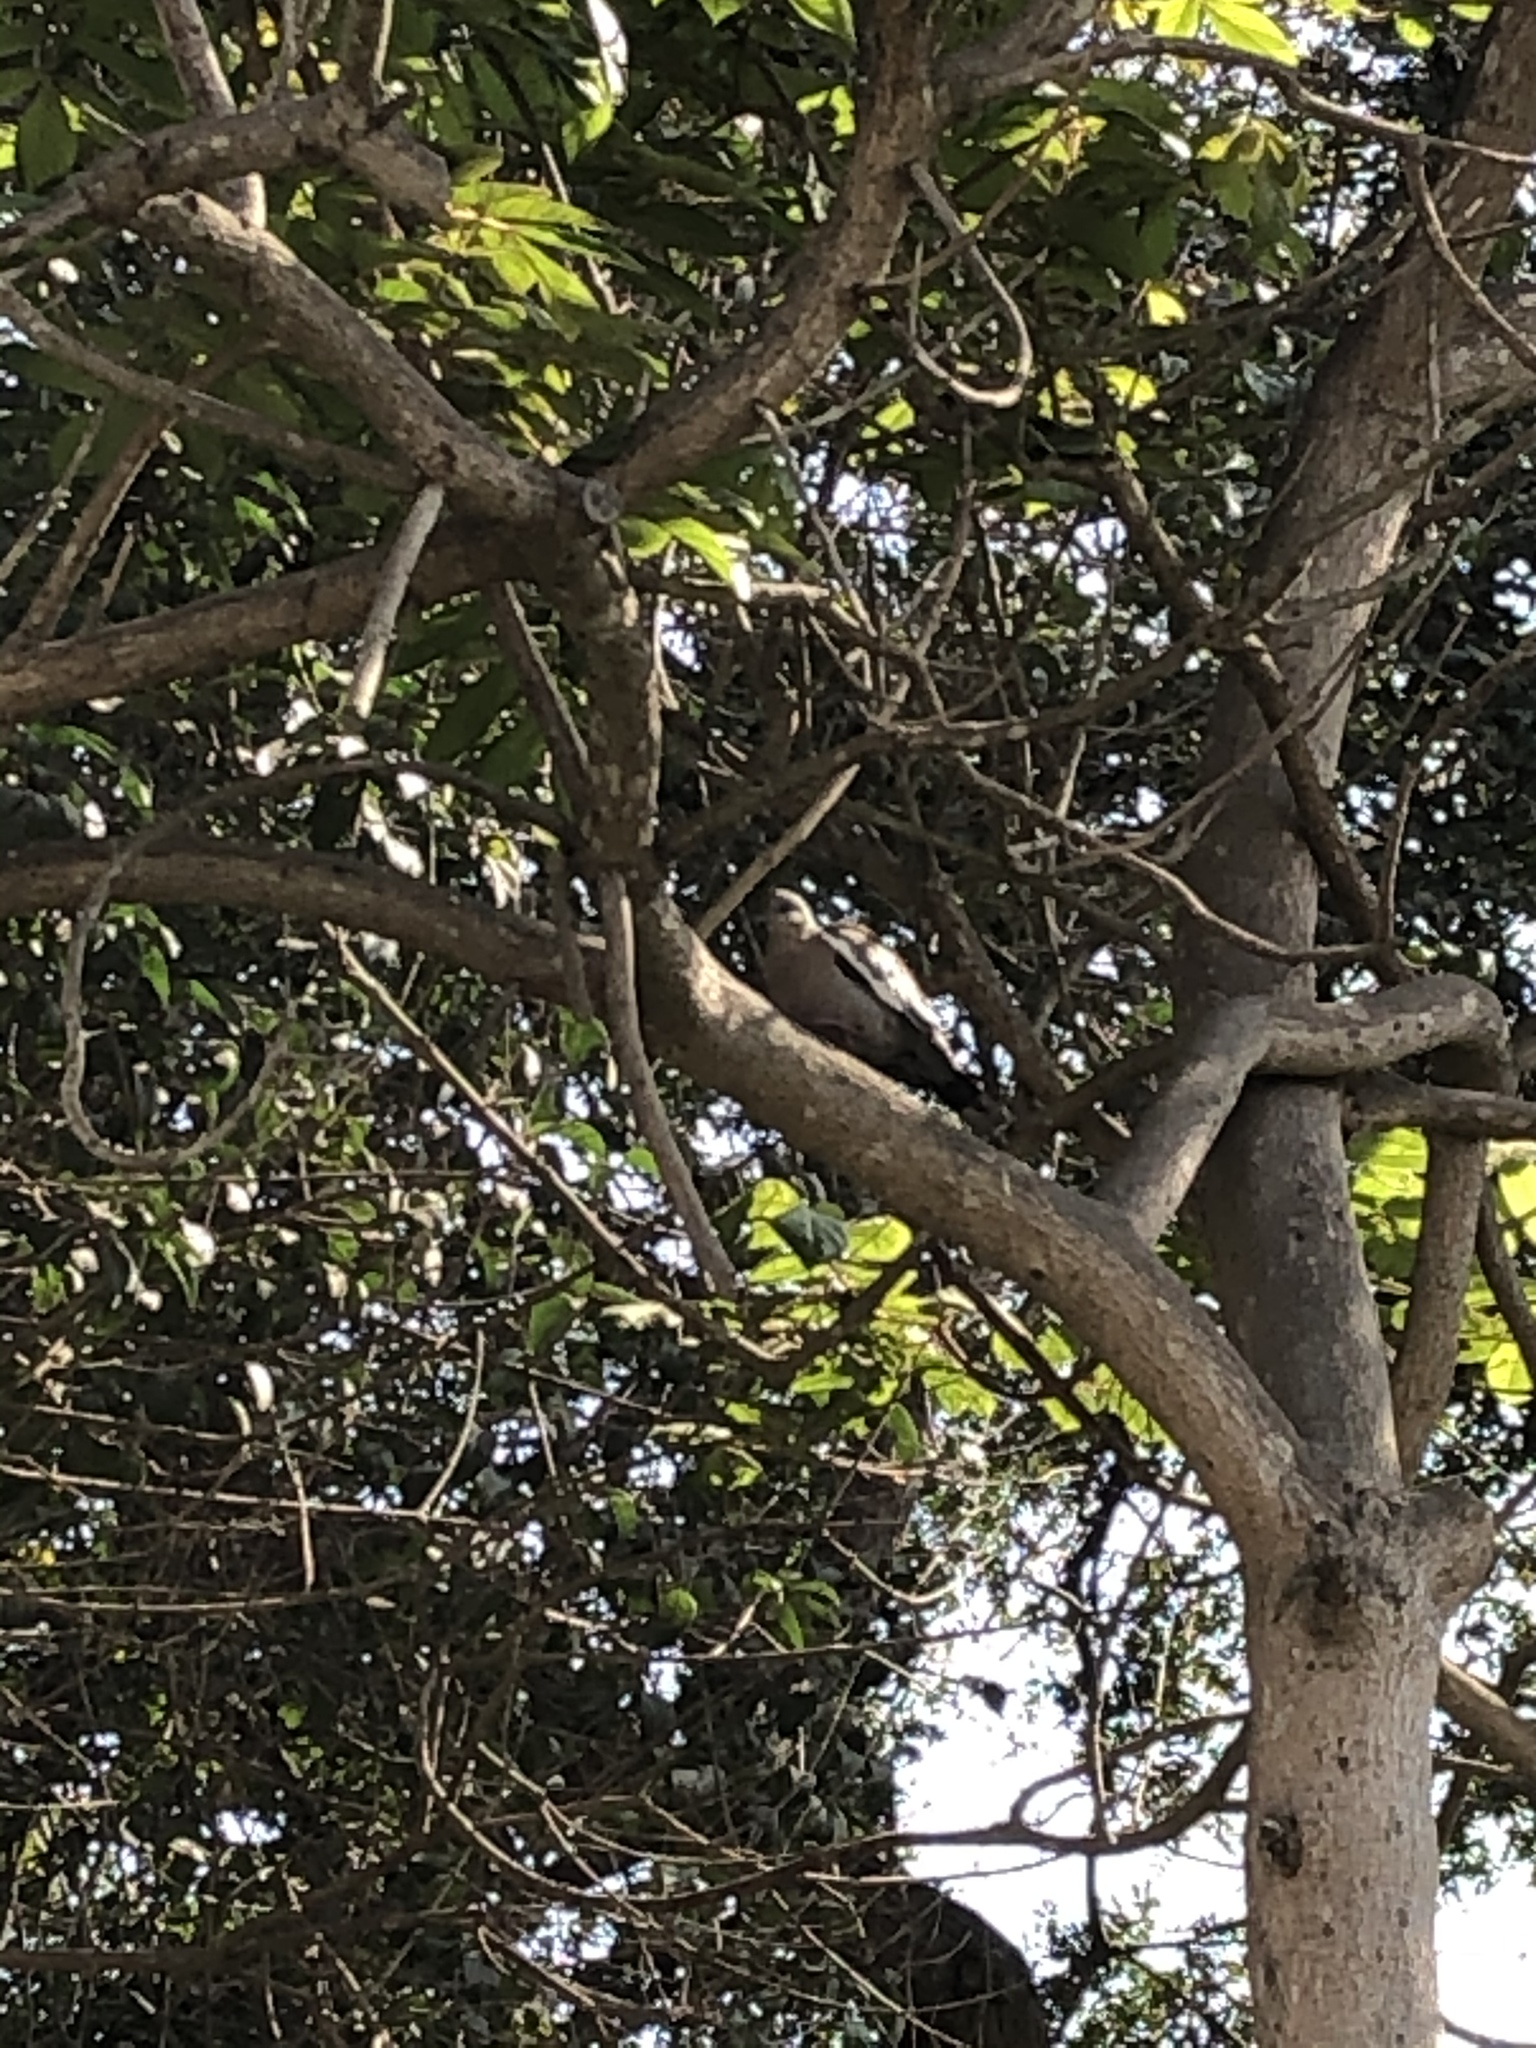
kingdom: Animalia
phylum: Chordata
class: Aves
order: Columbiformes
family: Columbidae
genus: Zenaida
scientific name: Zenaida meloda
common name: West peruvian dove
